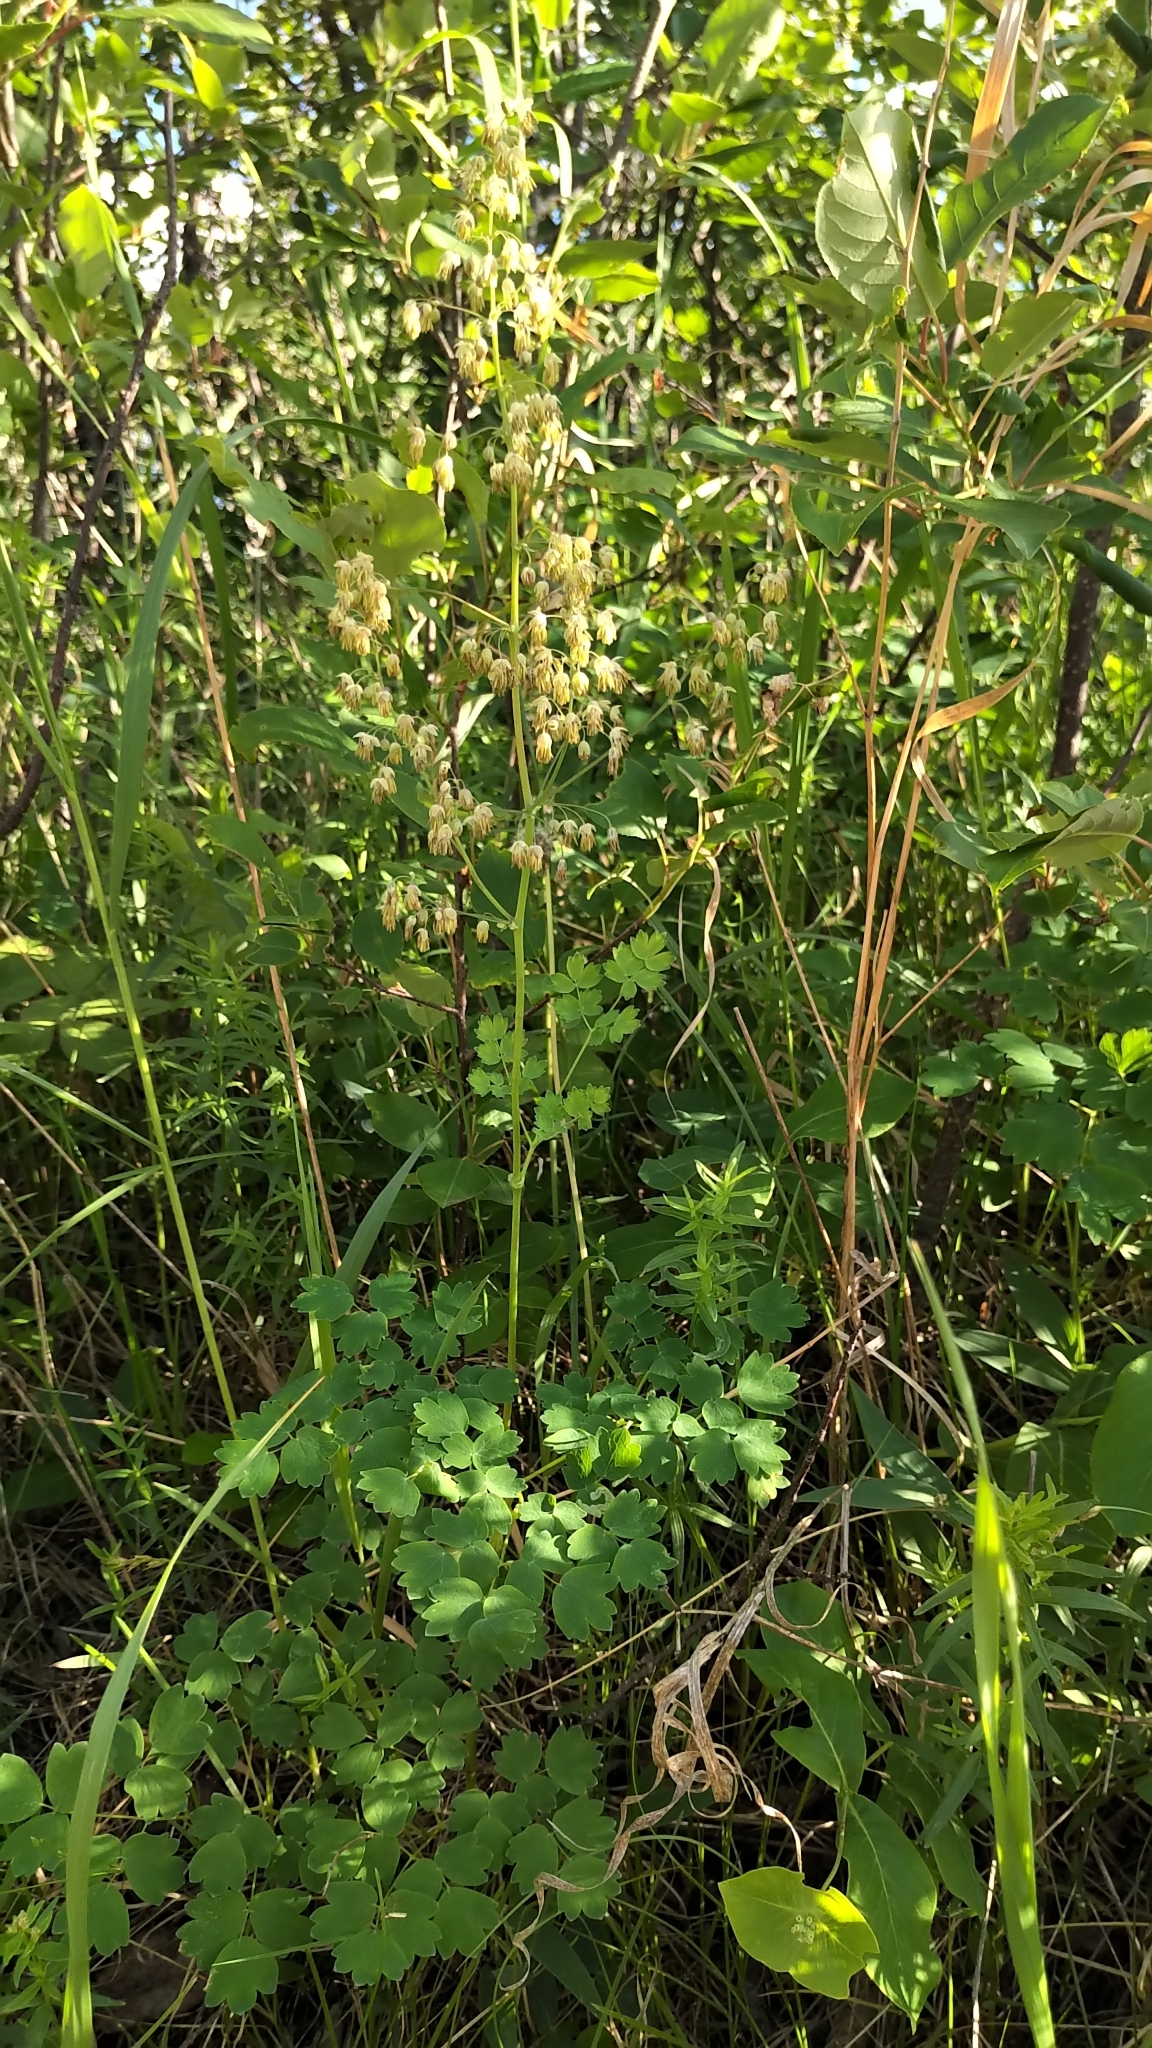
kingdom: Plantae
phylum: Tracheophyta
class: Magnoliopsida
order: Ranunculales
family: Ranunculaceae
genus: Thalictrum
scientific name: Thalictrum venulosum
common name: Early meadow-rue
